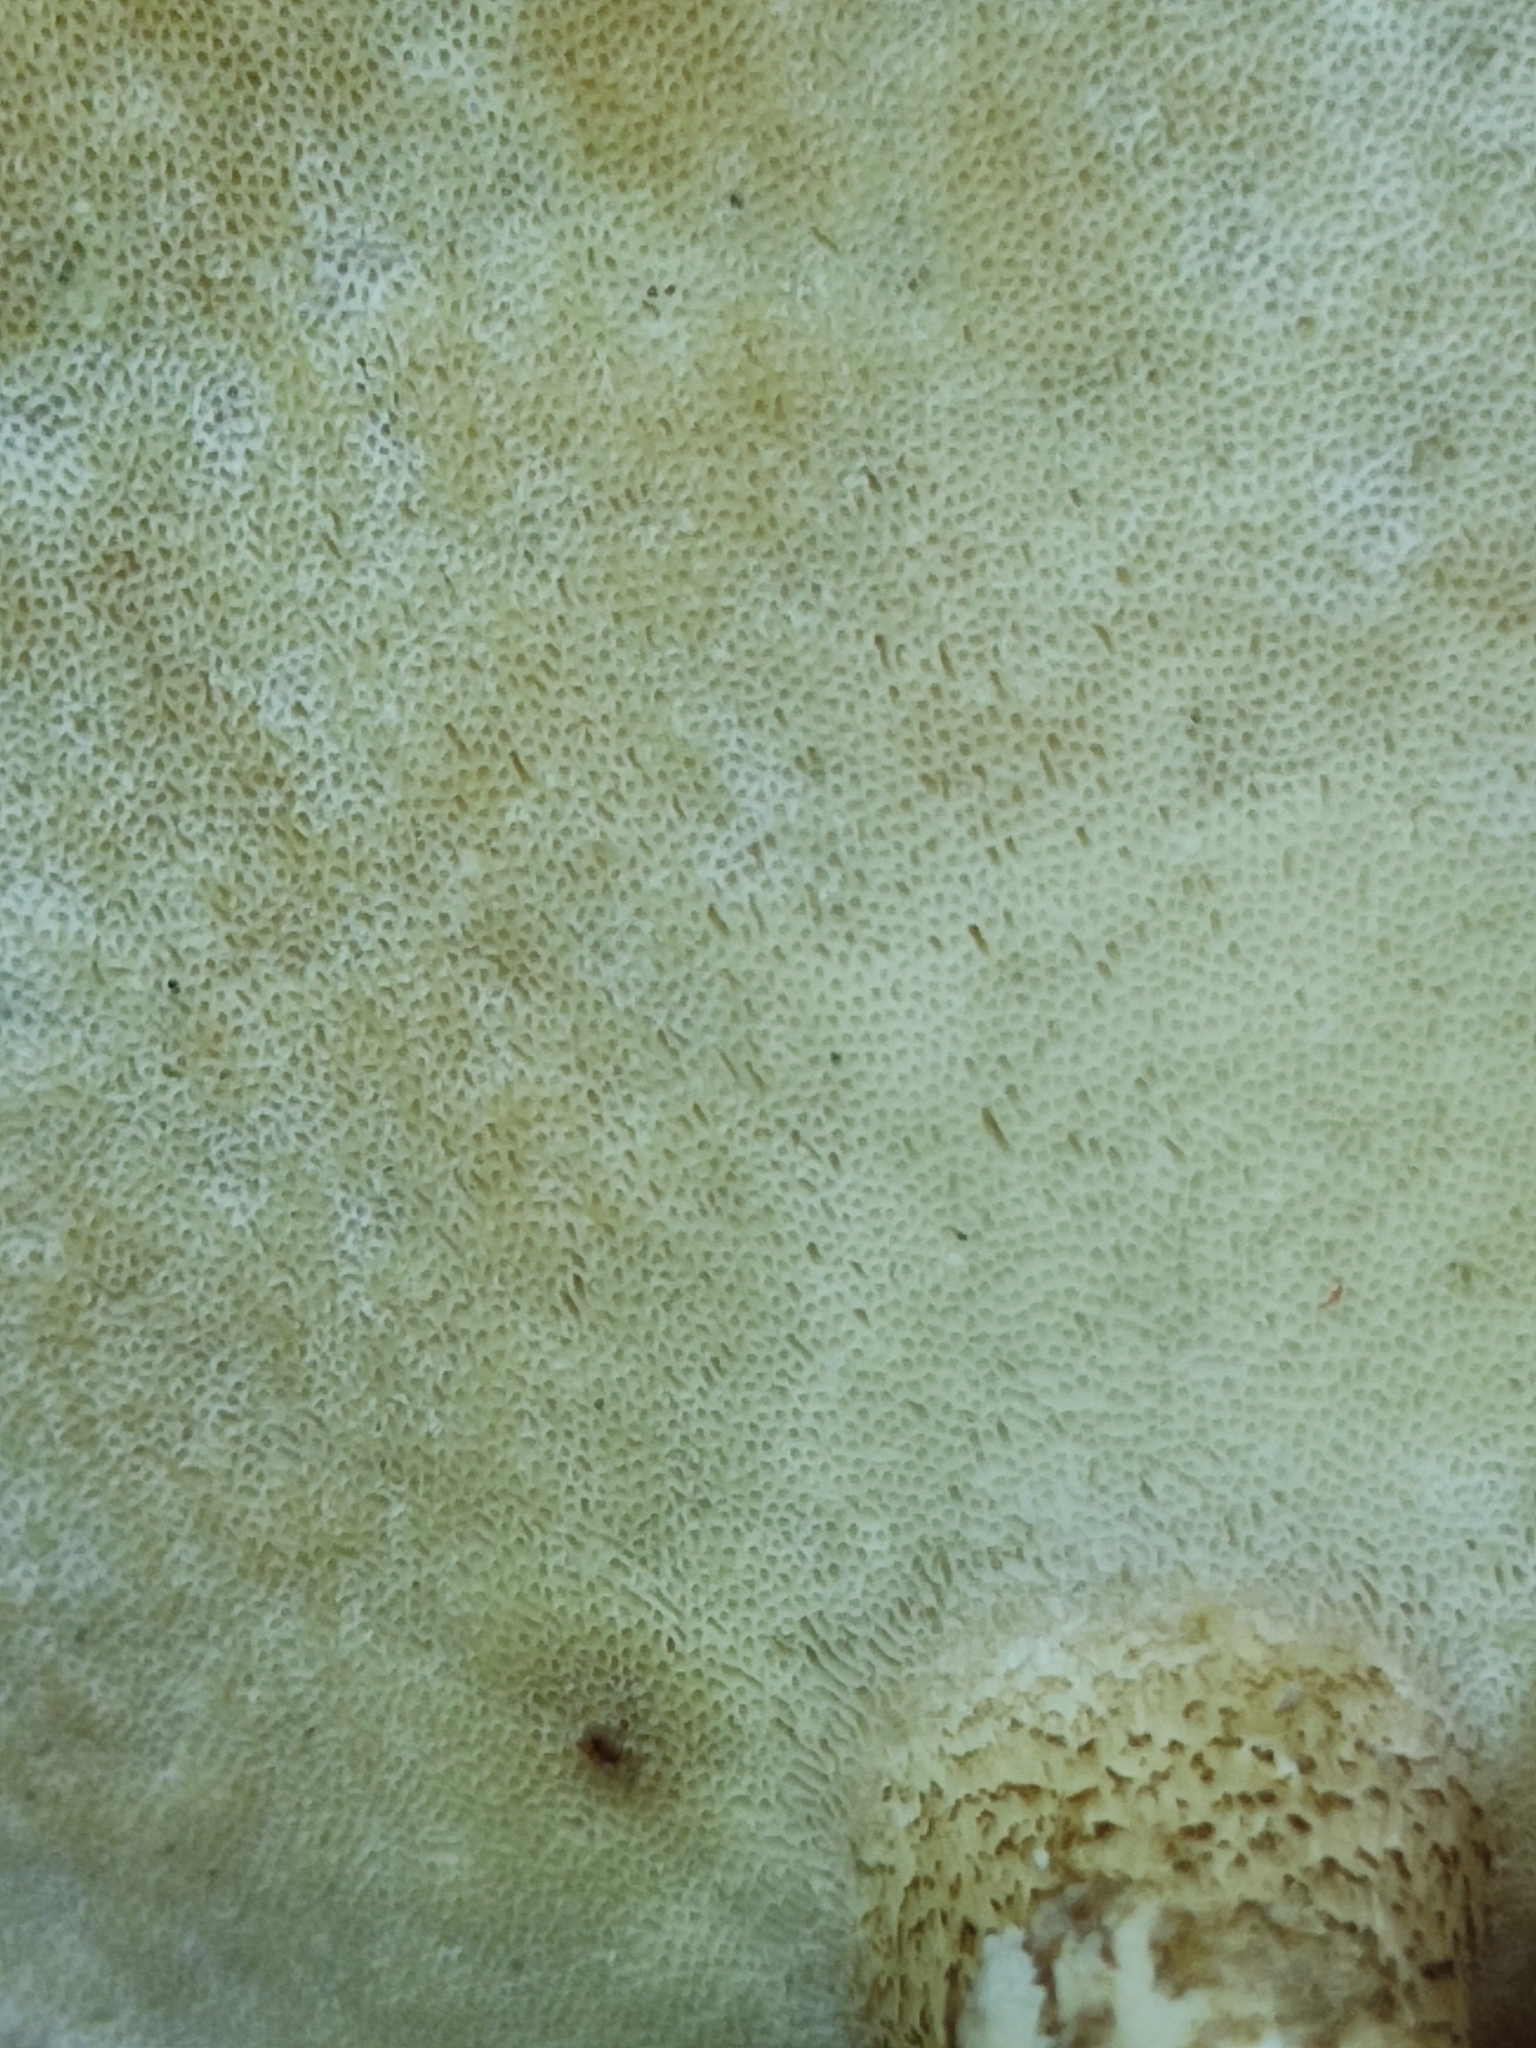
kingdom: Fungi
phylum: Basidiomycota
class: Agaricomycetes
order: Polyporales
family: Polyporaceae
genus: Lentinus
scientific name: Lentinus substrictus
